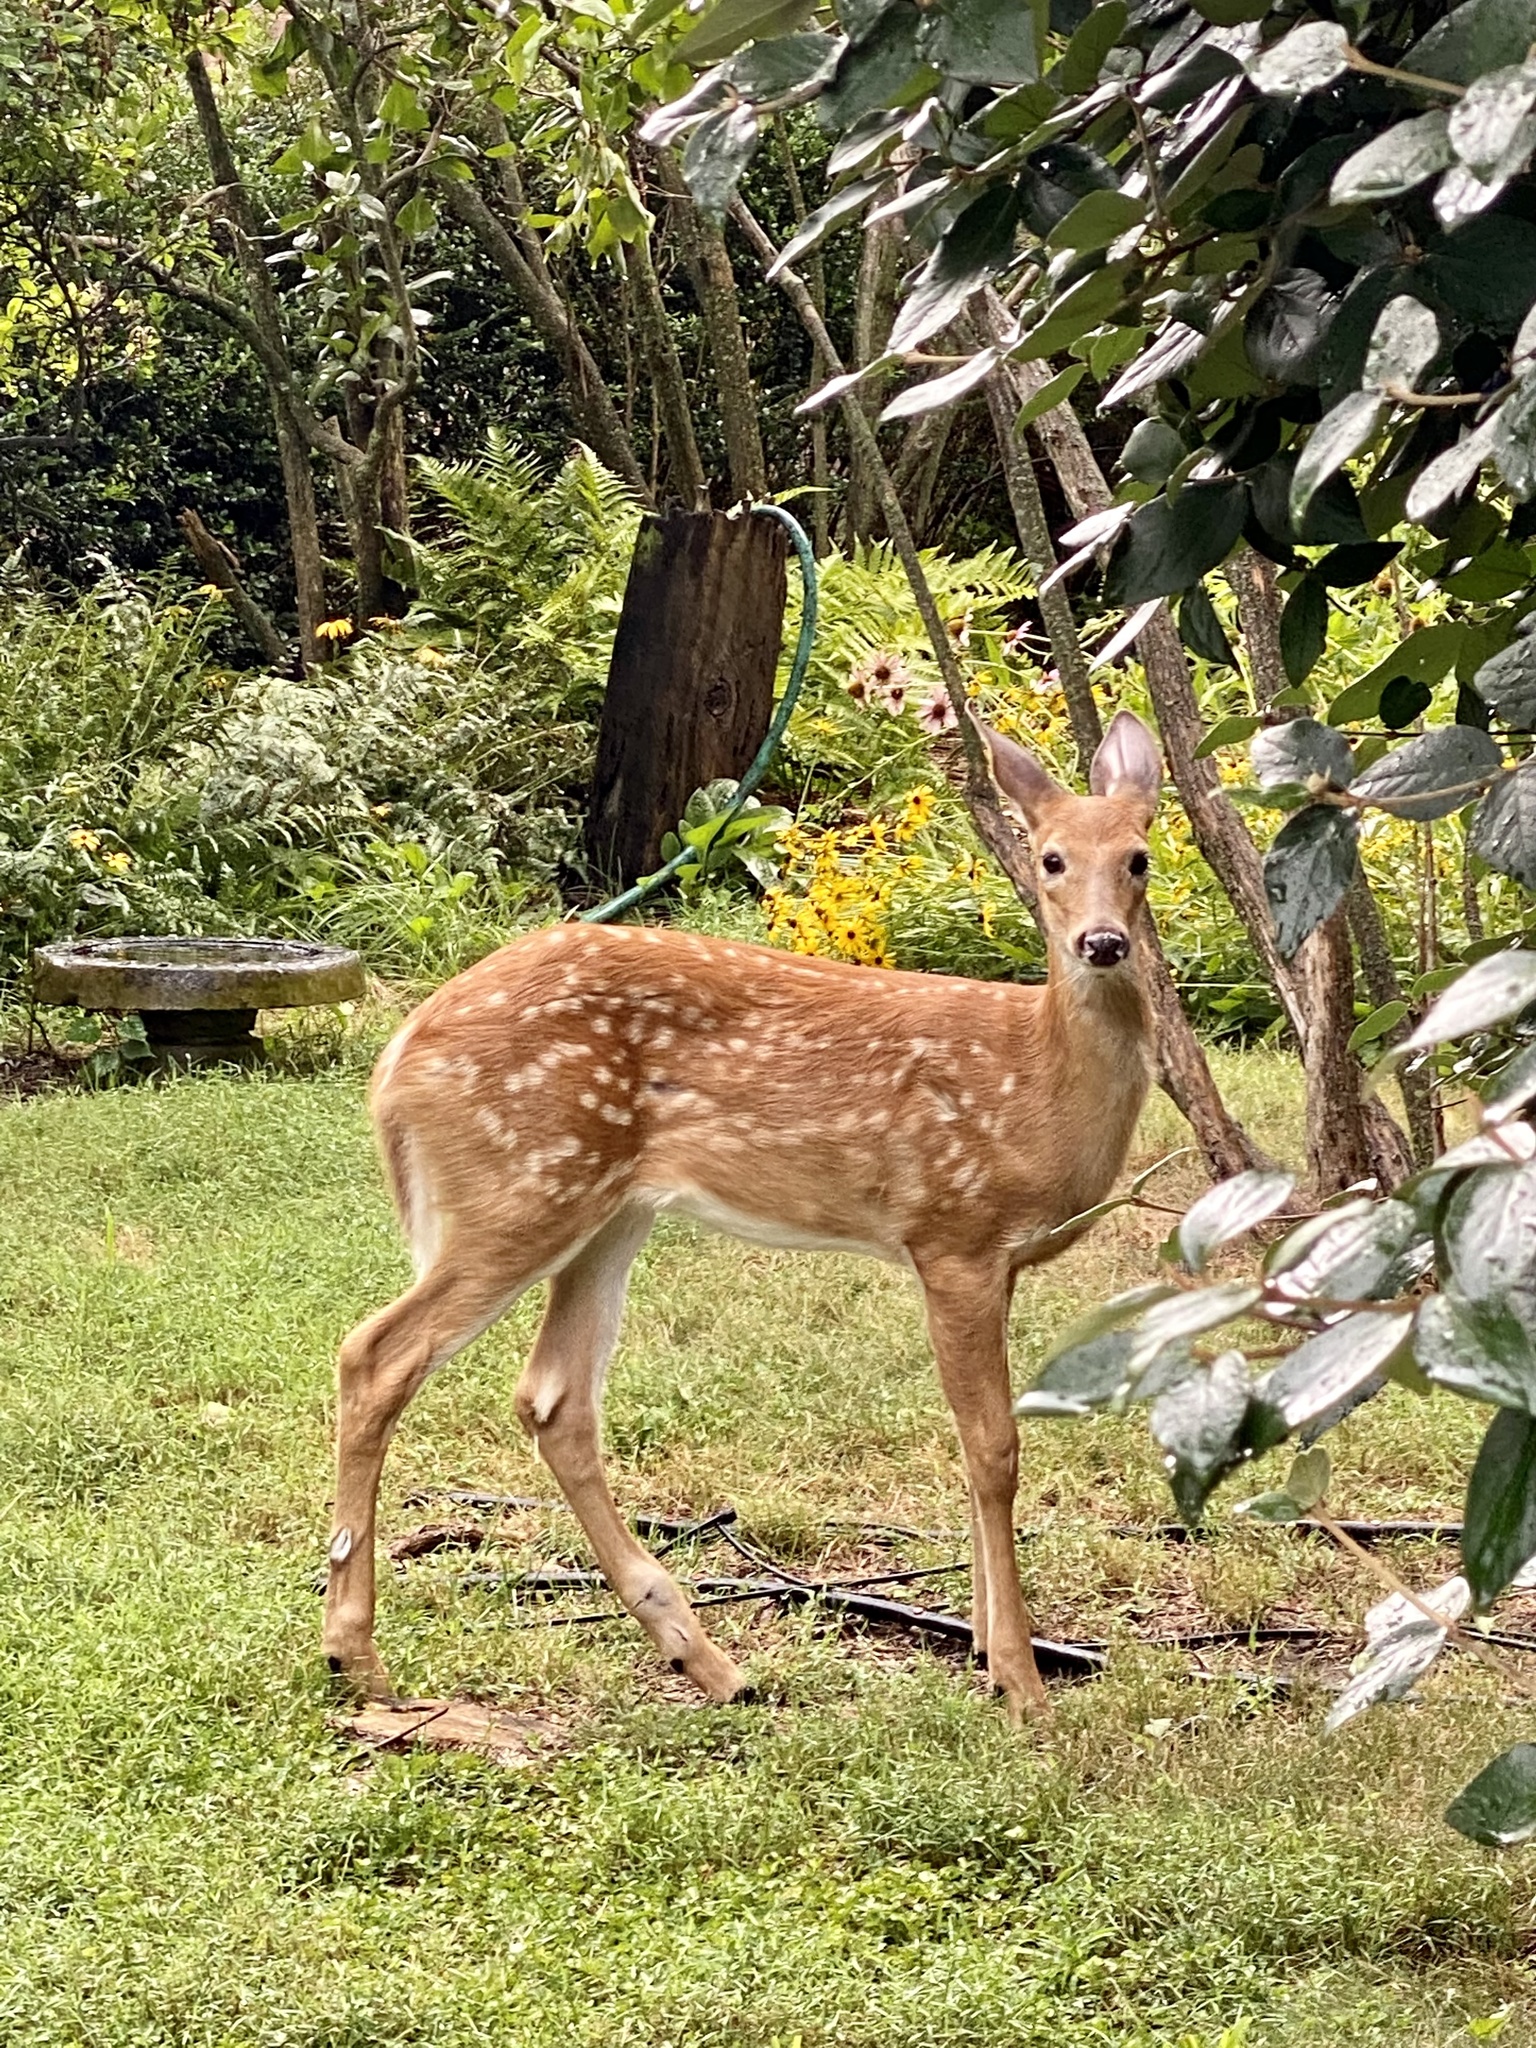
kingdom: Animalia
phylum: Chordata
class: Mammalia
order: Artiodactyla
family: Cervidae
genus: Odocoileus
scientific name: Odocoileus virginianus
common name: White-tailed deer
